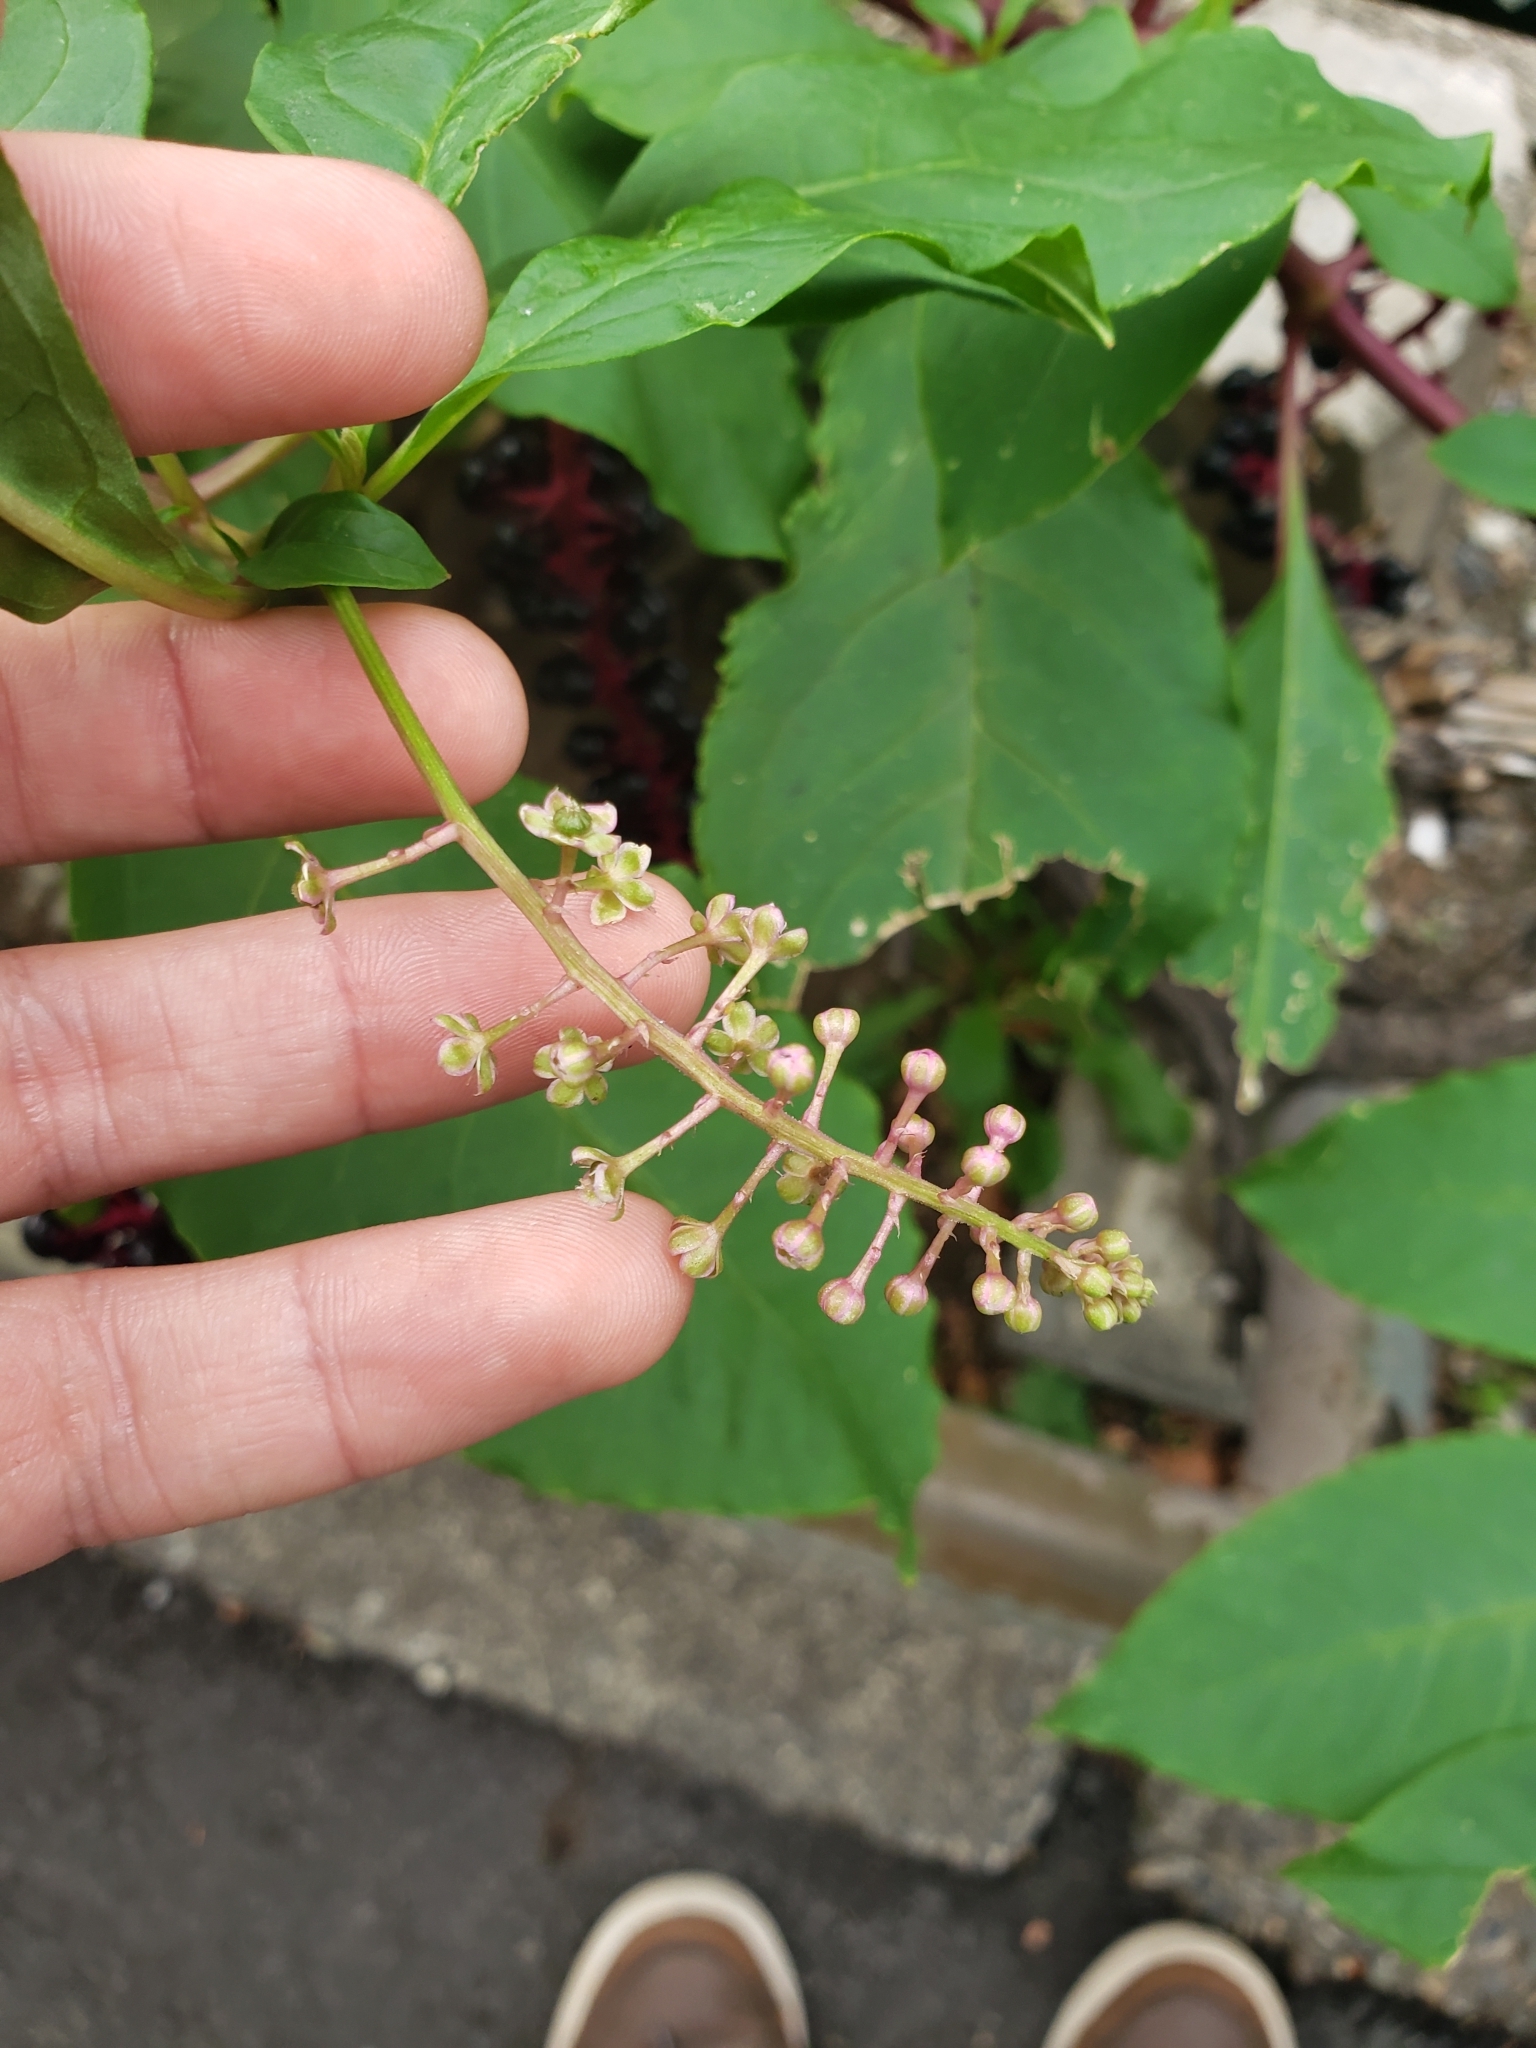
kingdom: Plantae
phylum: Tracheophyta
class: Magnoliopsida
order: Caryophyllales
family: Phytolaccaceae
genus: Phytolacca
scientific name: Phytolacca americana
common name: American pokeweed
